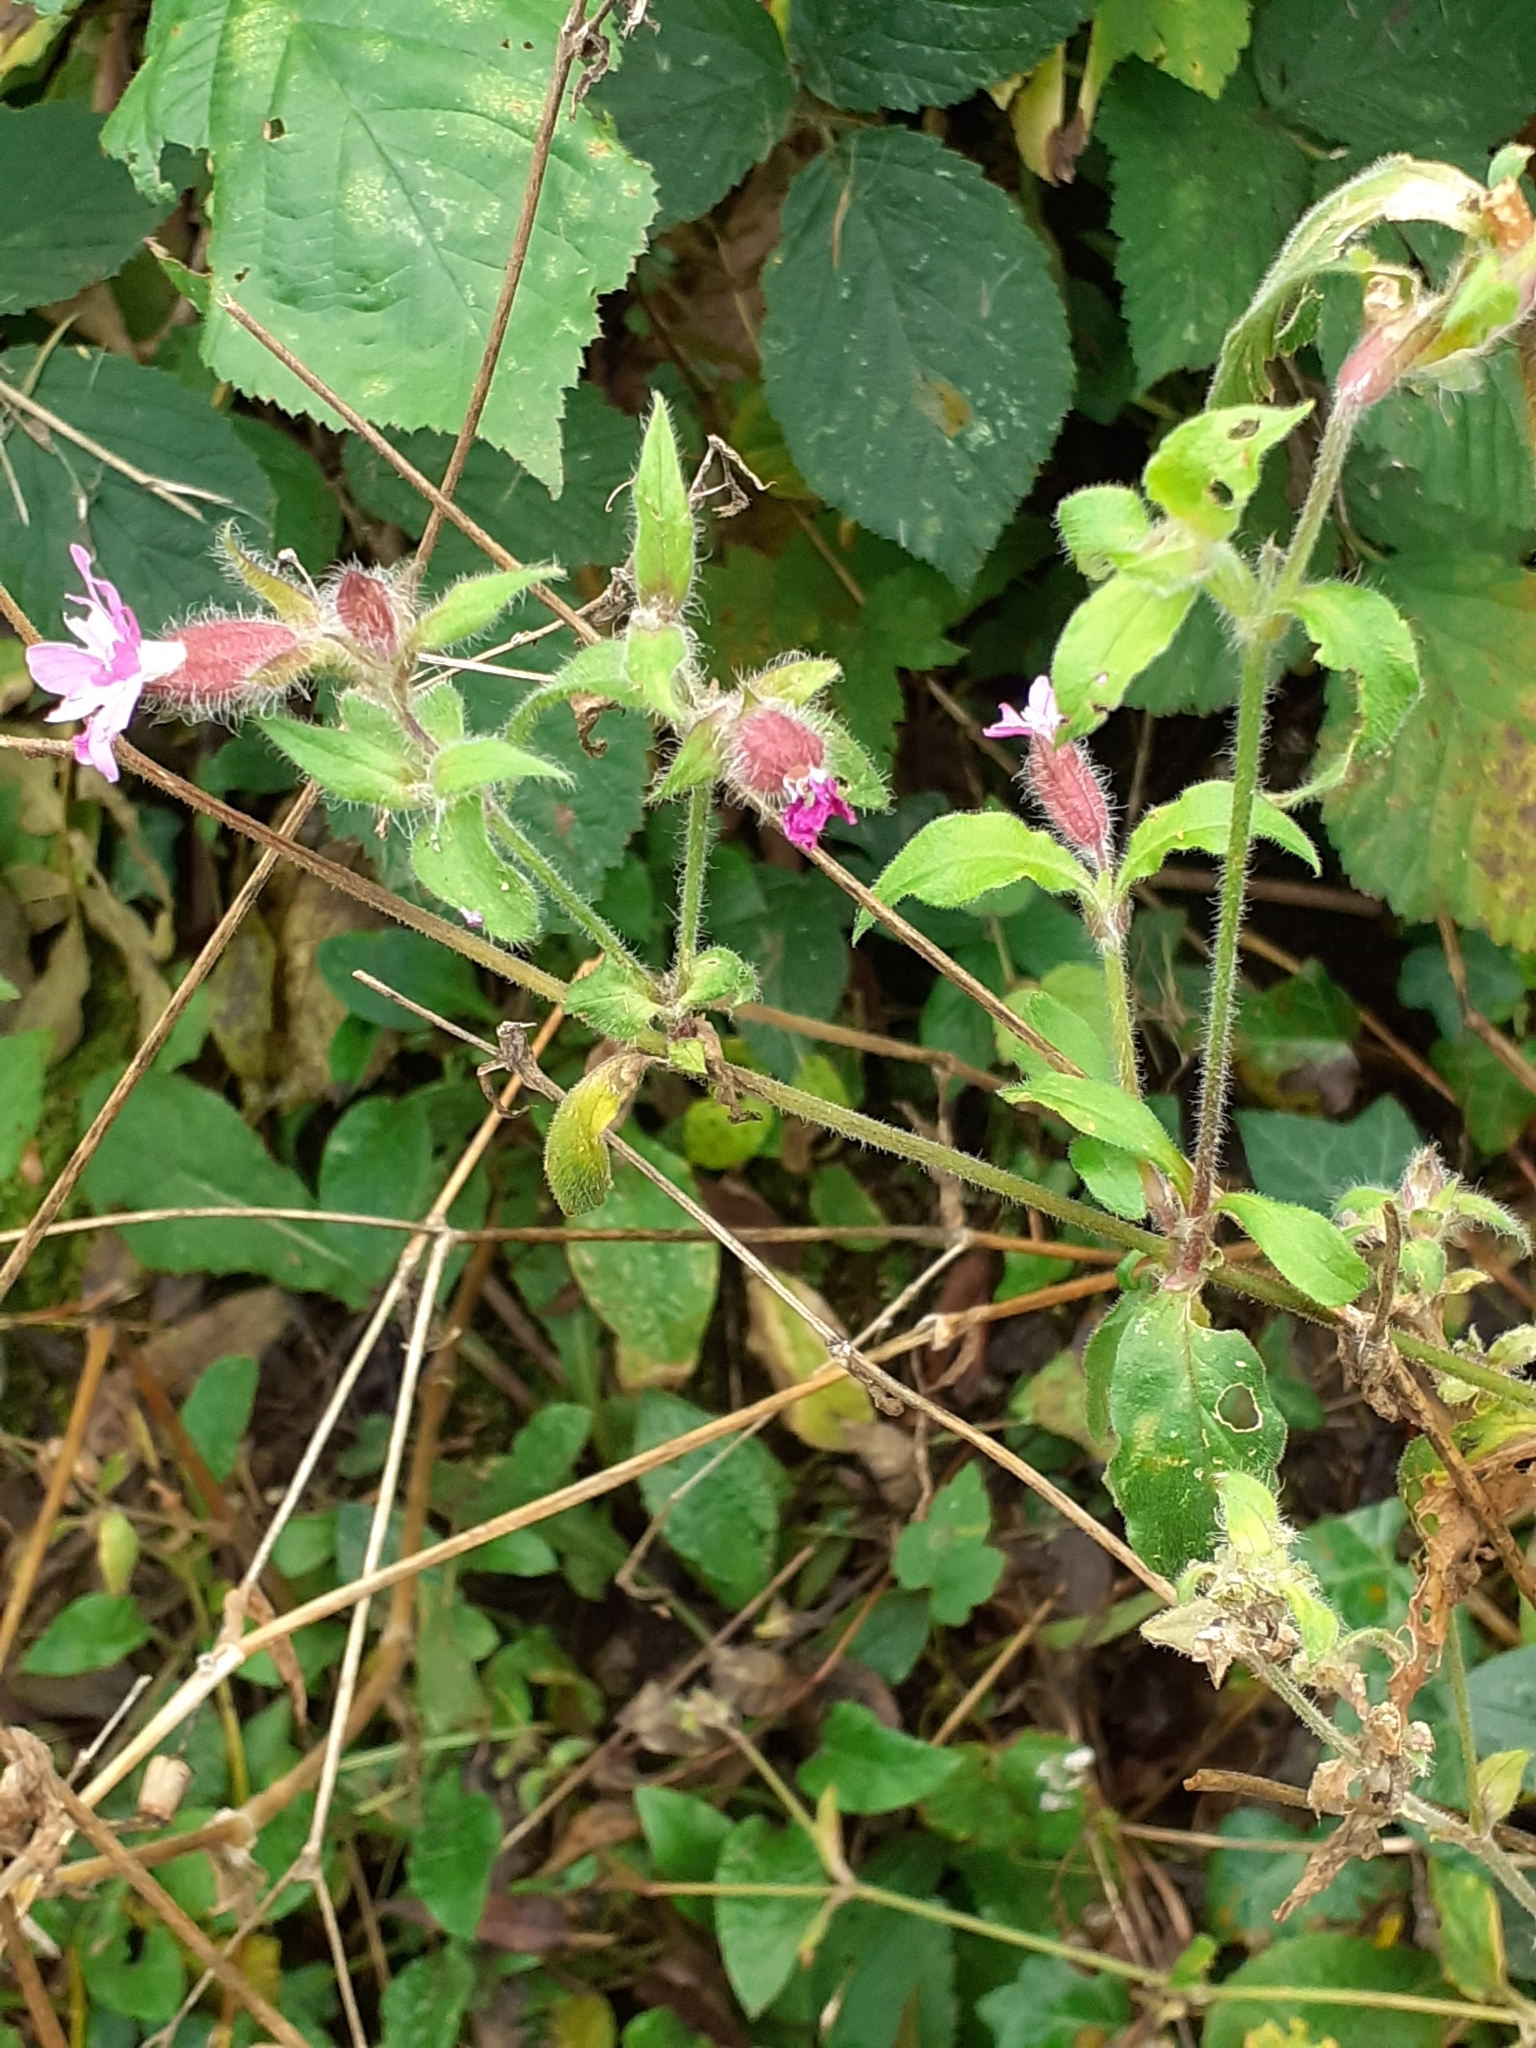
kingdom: Plantae
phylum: Tracheophyta
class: Magnoliopsida
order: Caryophyllales
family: Caryophyllaceae
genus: Silene
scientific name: Silene dioica
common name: Red campion
